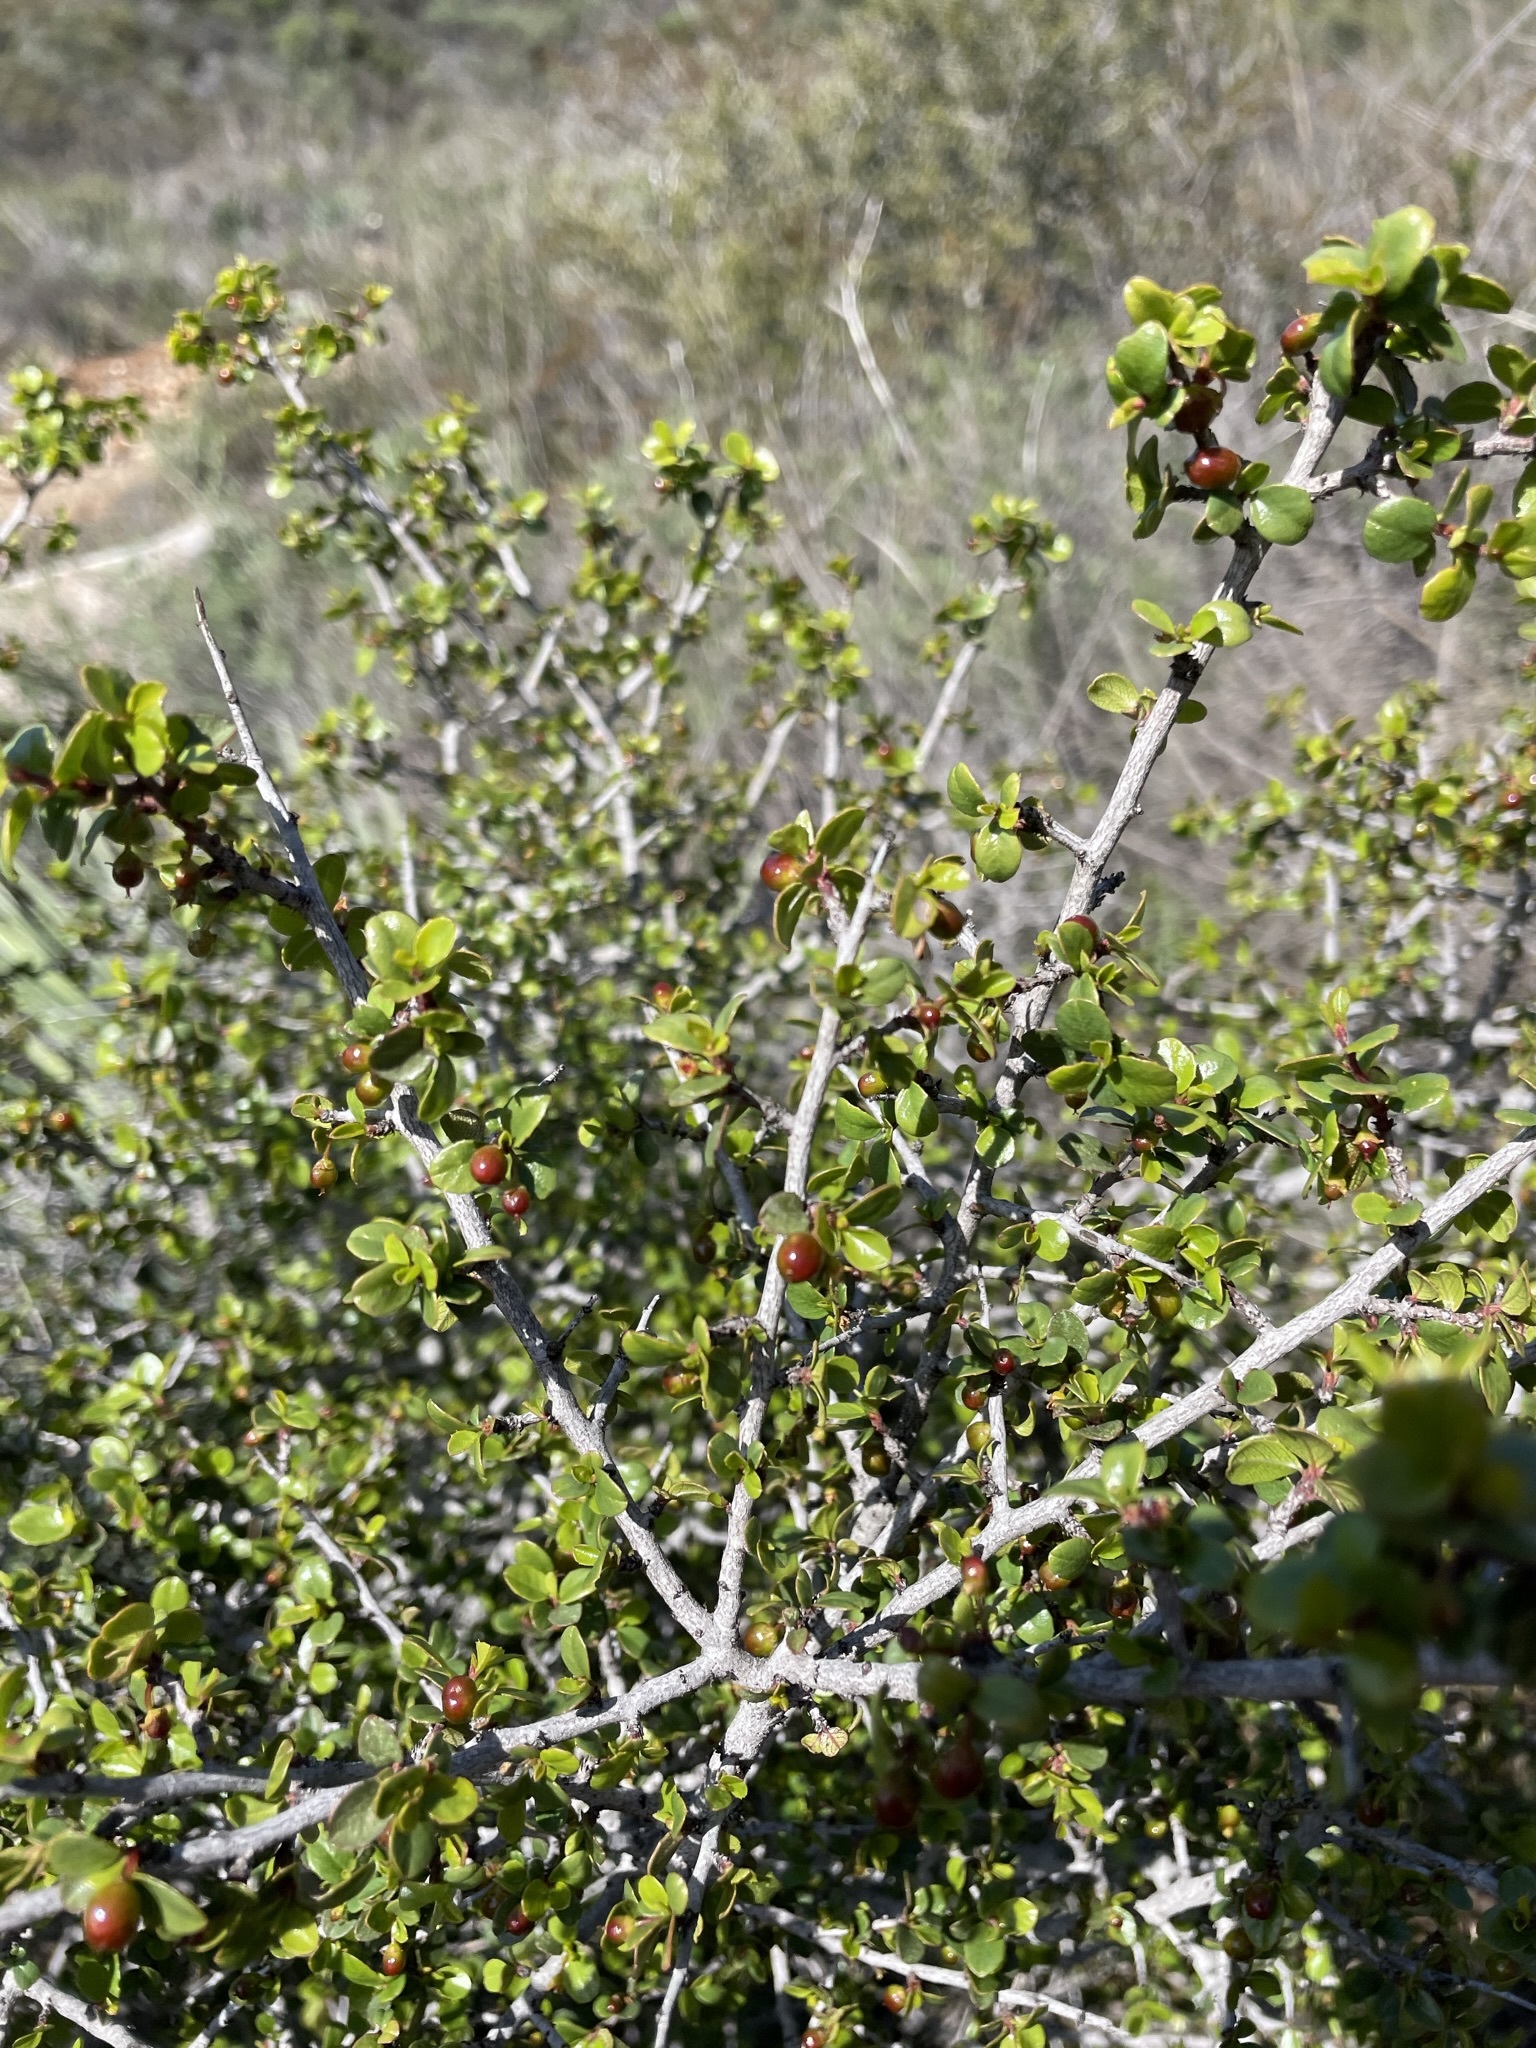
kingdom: Plantae
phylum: Tracheophyta
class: Magnoliopsida
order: Rosales
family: Rhamnaceae
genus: Endotropis
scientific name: Endotropis crocea
